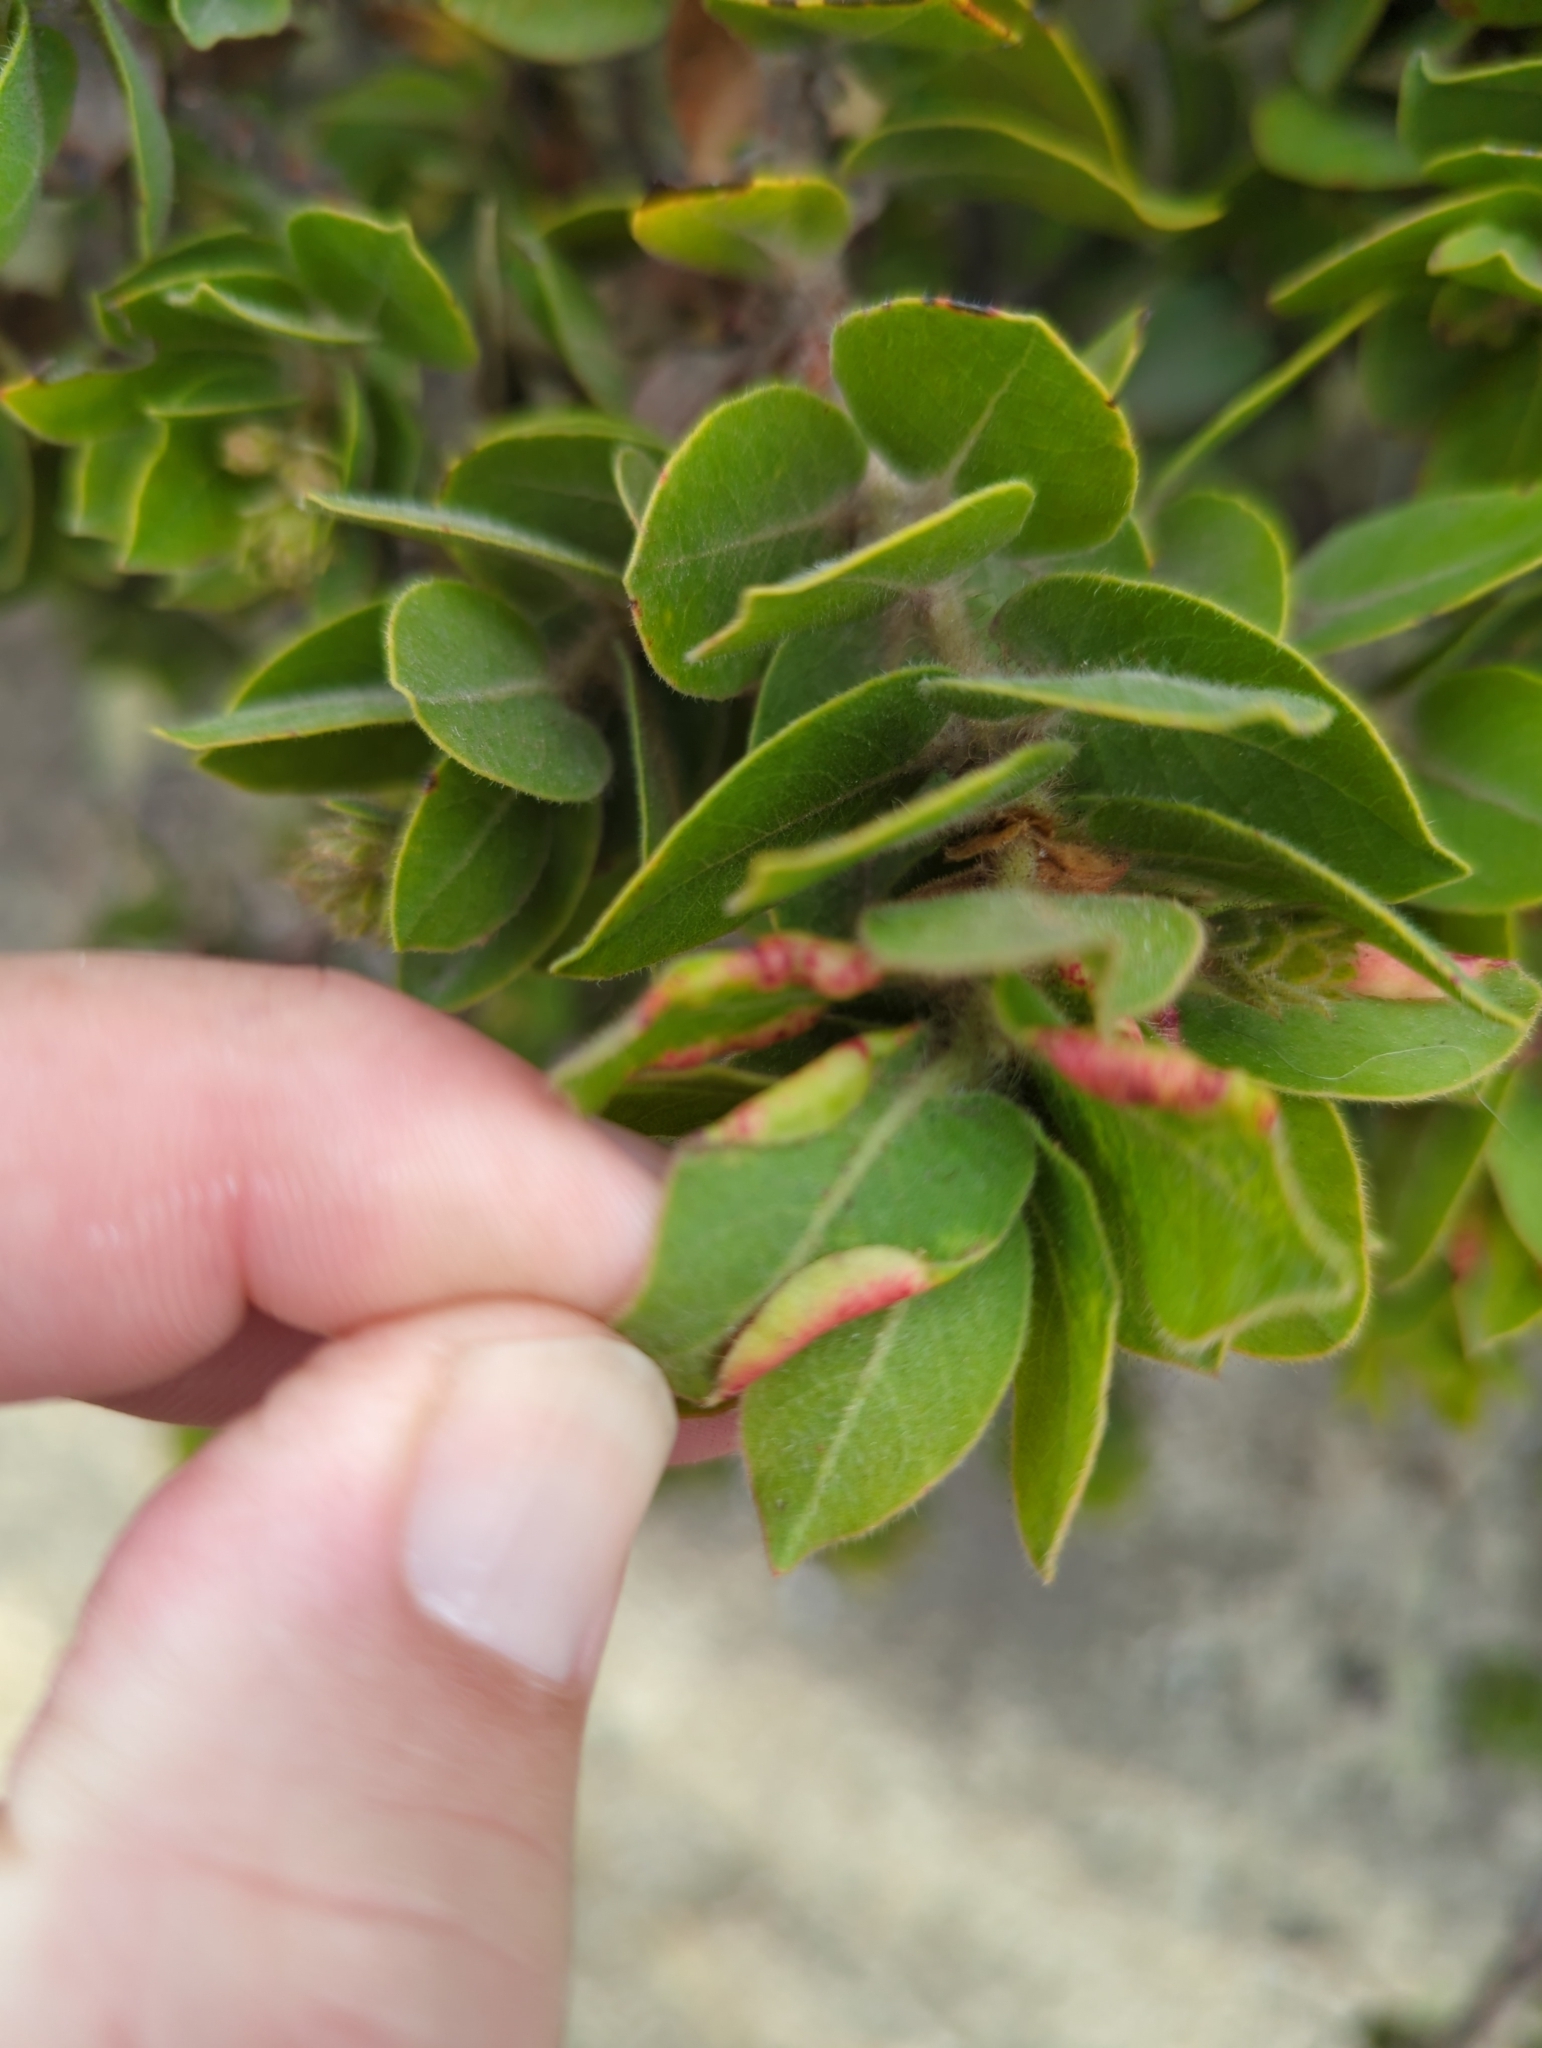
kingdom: Animalia
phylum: Arthropoda
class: Insecta
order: Hemiptera
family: Aphididae
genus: Tamalia
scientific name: Tamalia coweni
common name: Manzanita leafgall aphid
